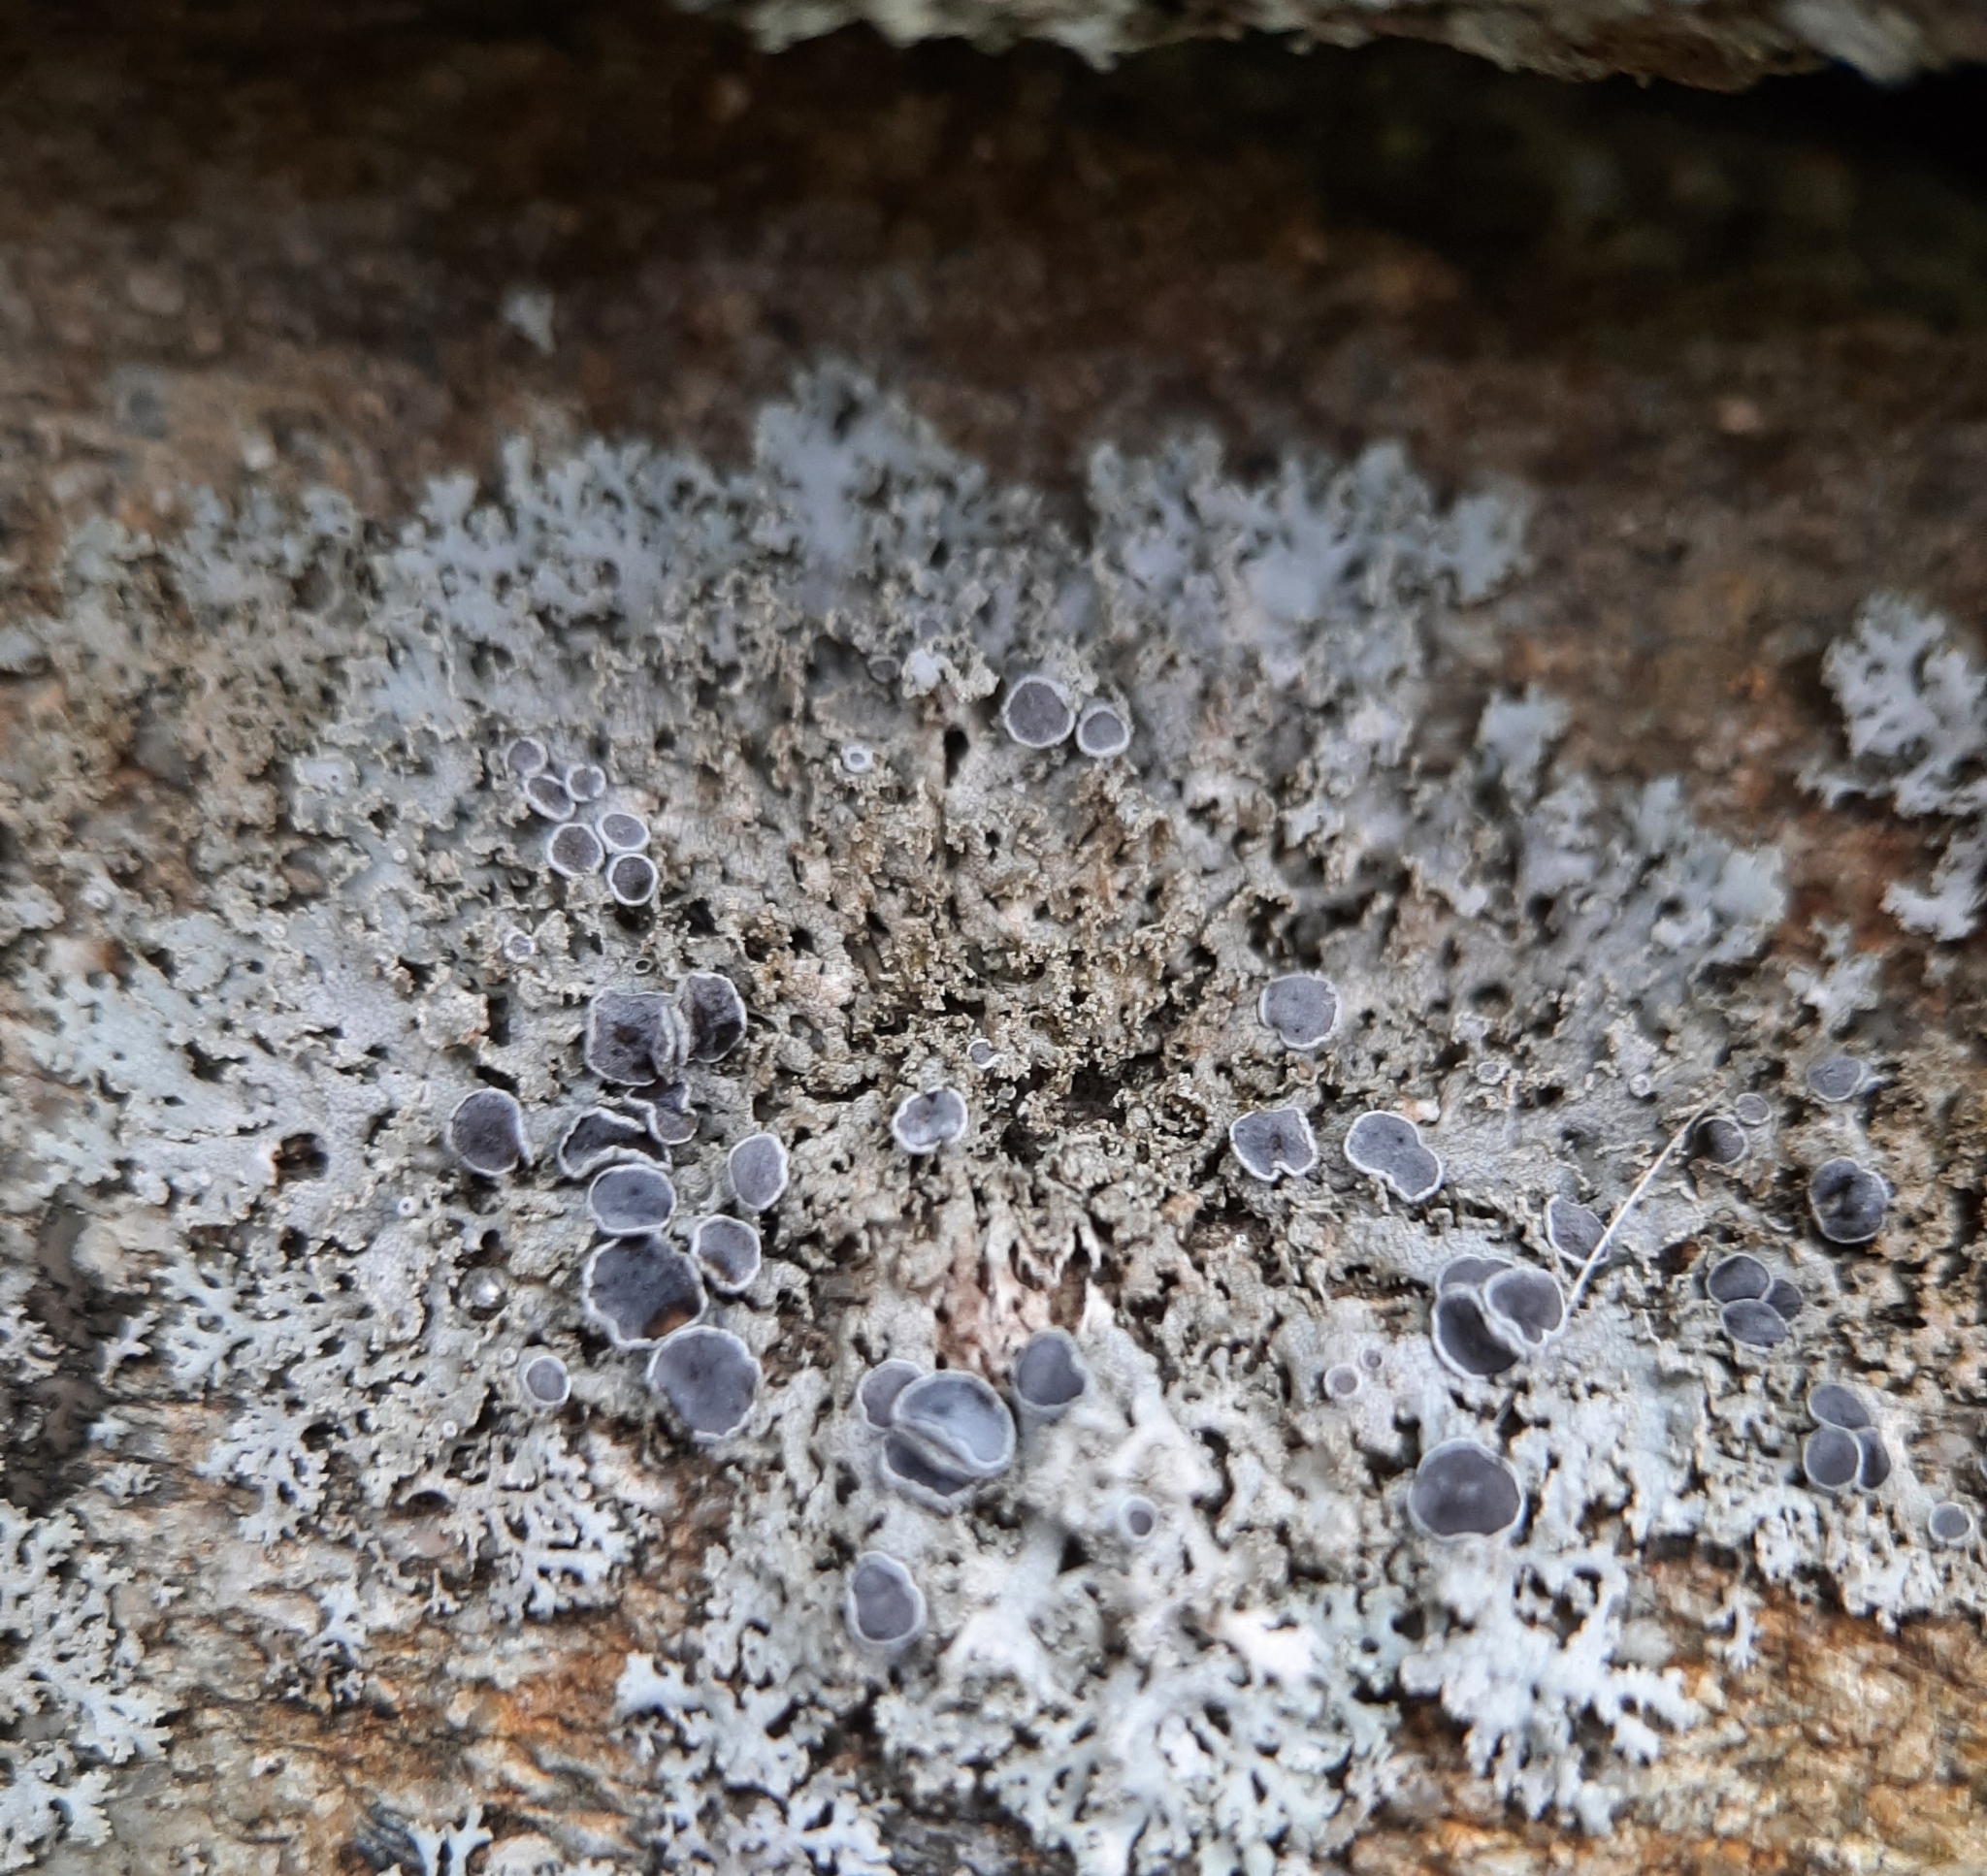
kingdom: Fungi
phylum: Ascomycota
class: Lecanoromycetes
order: Caliciales
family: Physciaceae
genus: Physcia
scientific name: Physcia millegrana
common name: Rosette lichen
